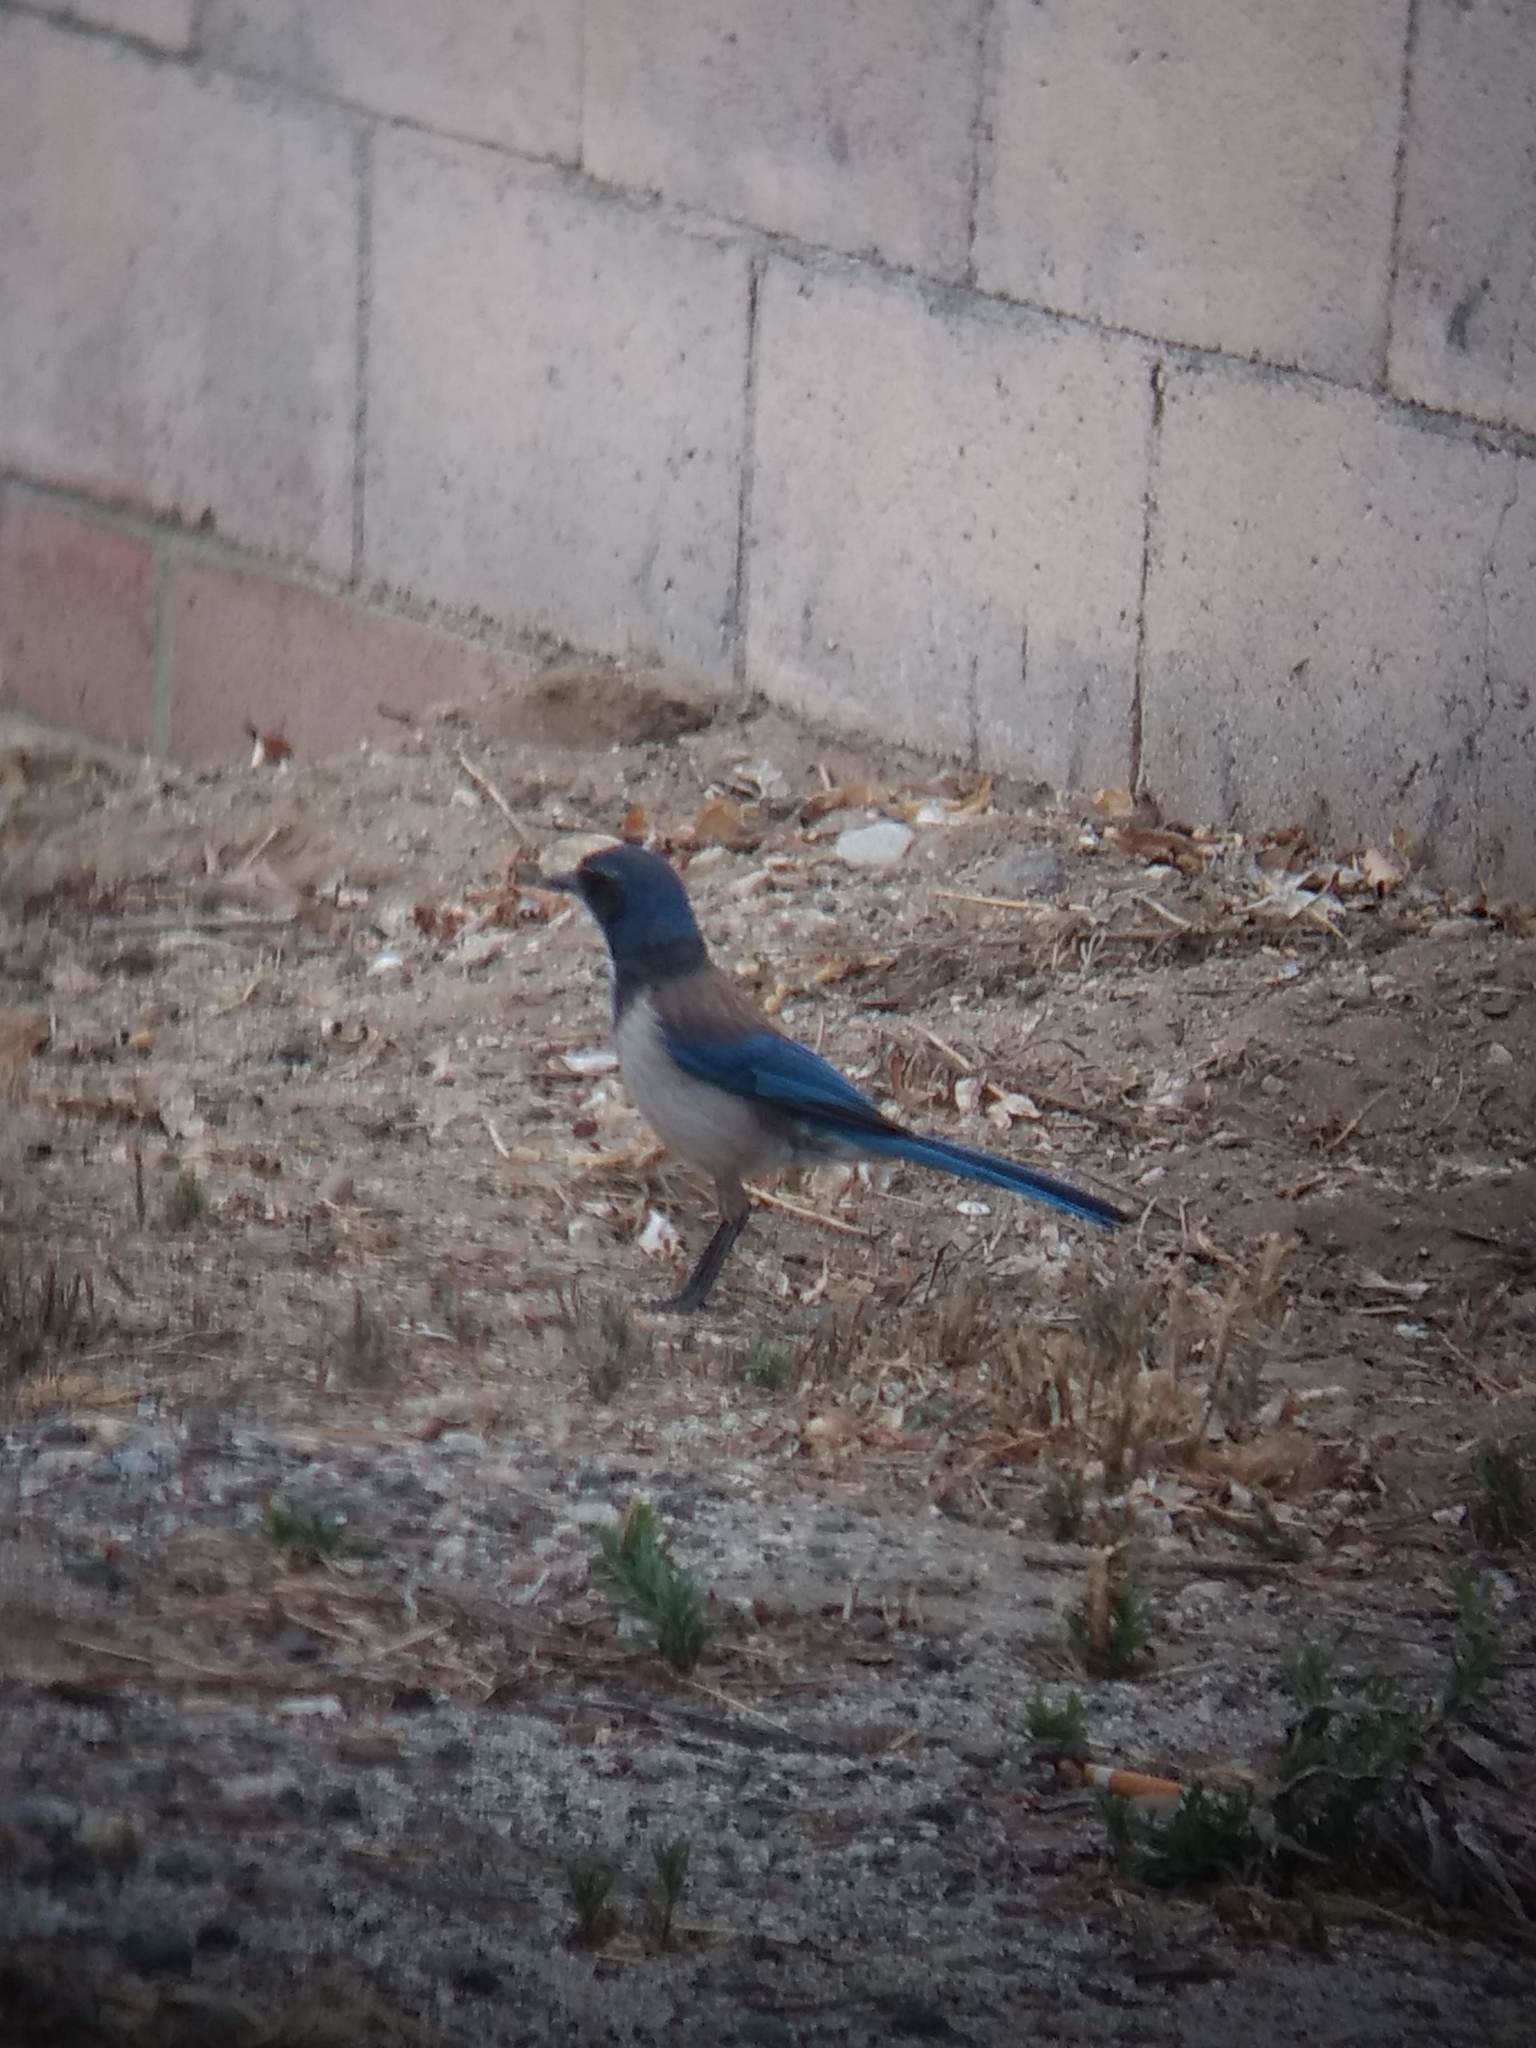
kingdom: Animalia
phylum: Chordata
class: Aves
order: Passeriformes
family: Corvidae
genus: Aphelocoma
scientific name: Aphelocoma californica
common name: California scrub-jay
